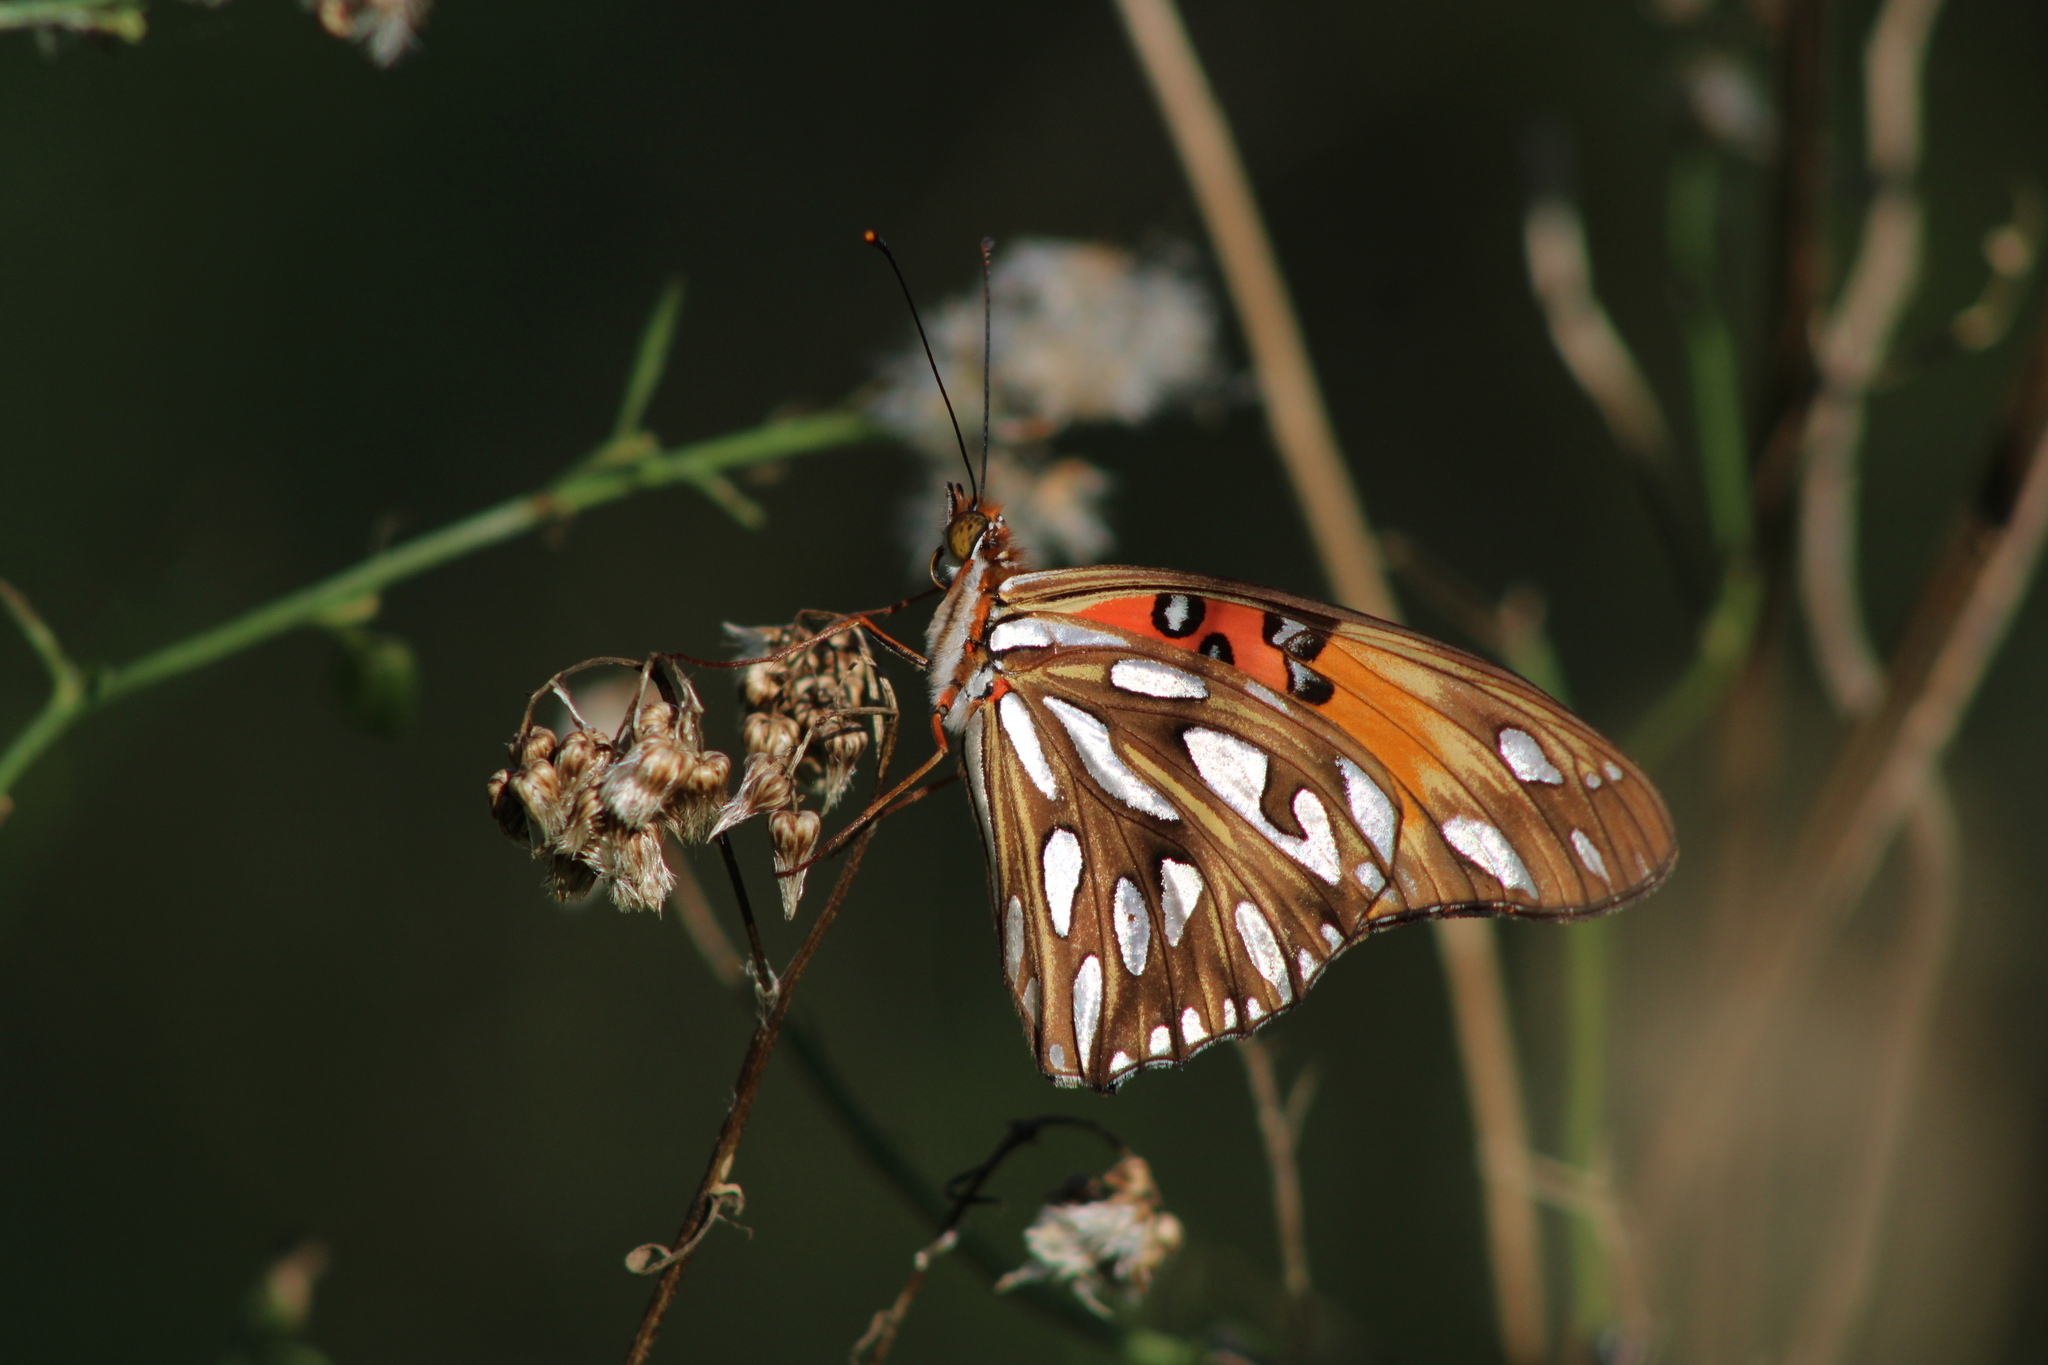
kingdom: Animalia
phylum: Arthropoda
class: Insecta
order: Lepidoptera
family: Nymphalidae
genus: Dione
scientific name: Dione vanillae
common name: Gulf fritillary
